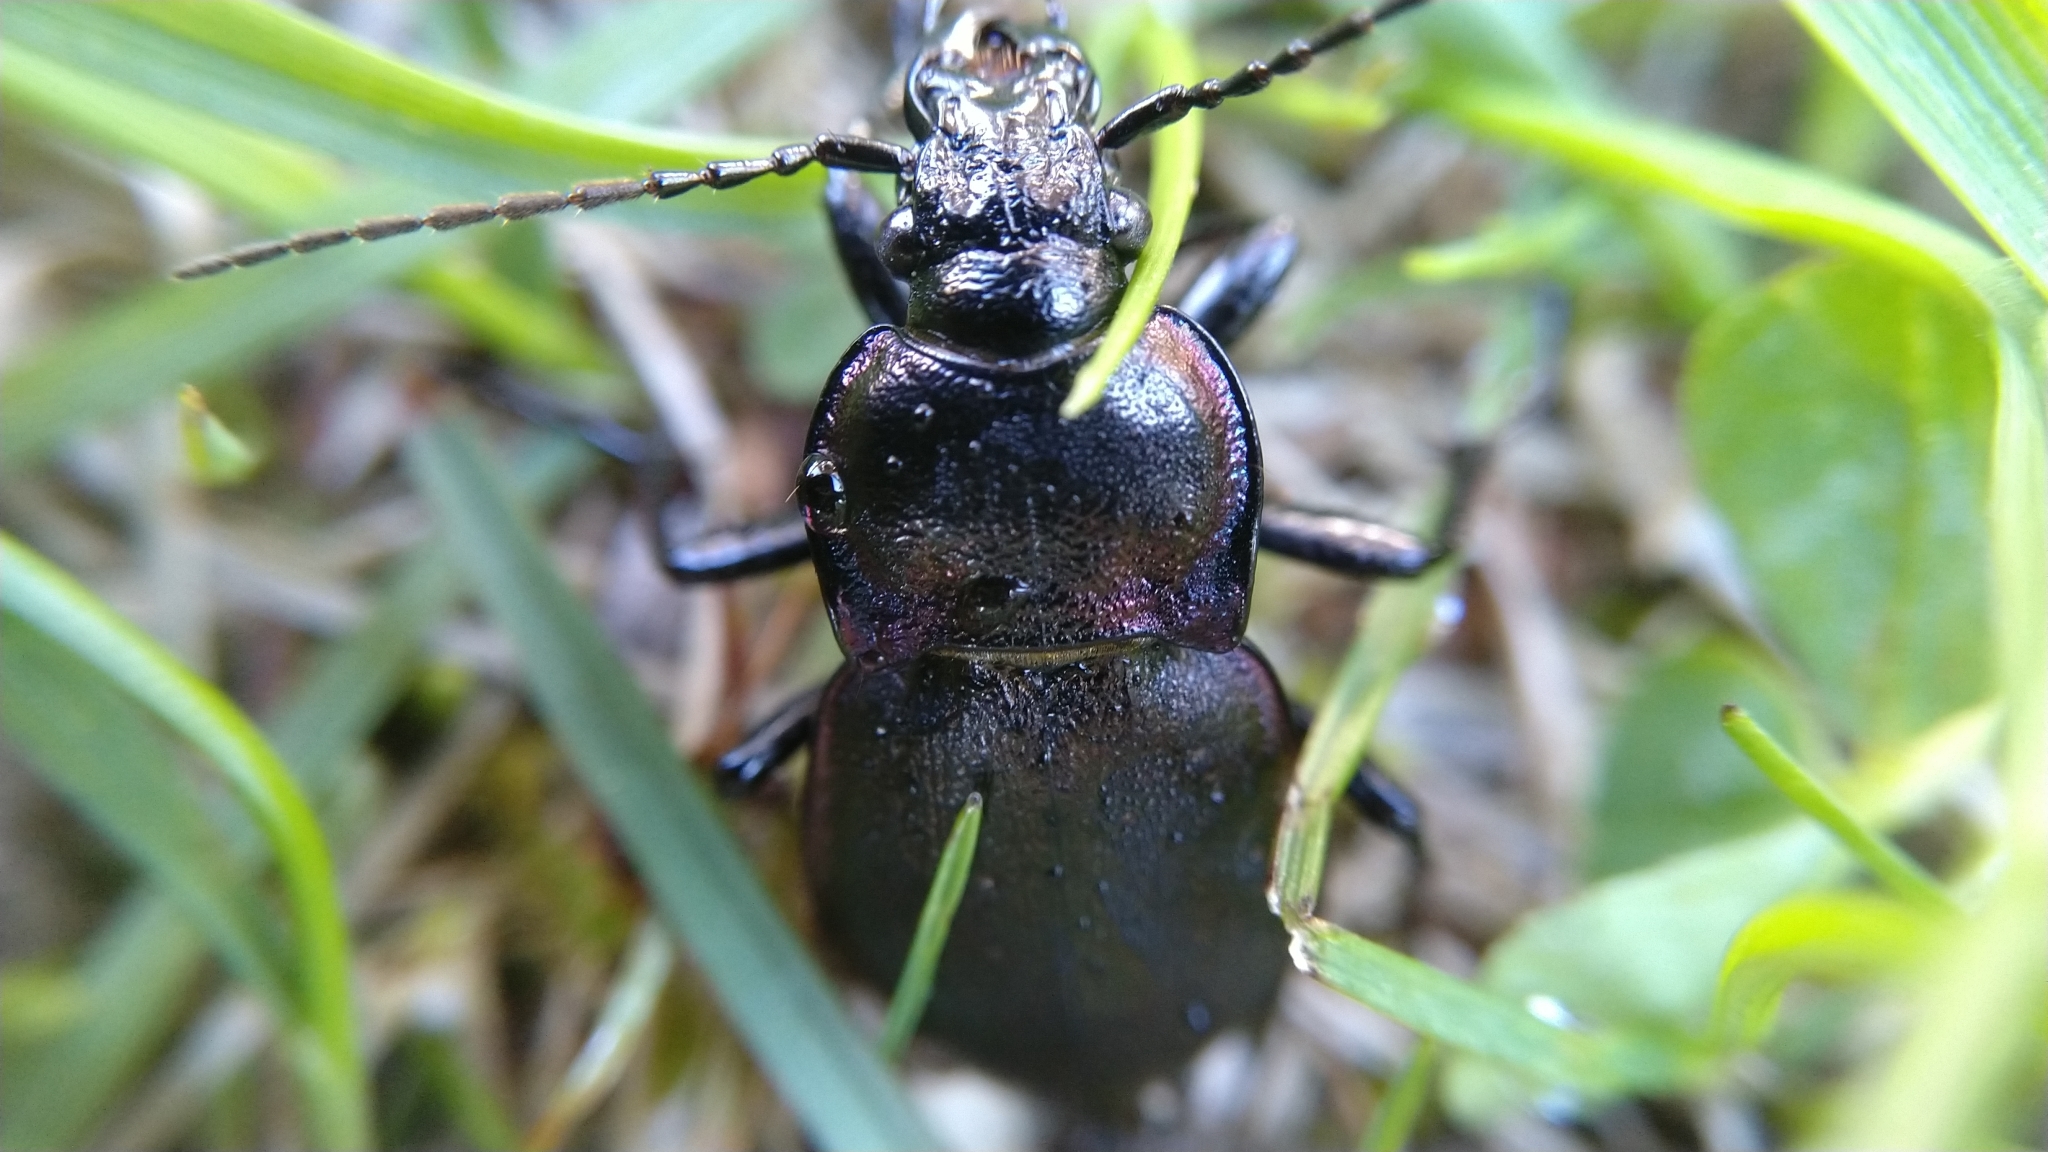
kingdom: Animalia
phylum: Arthropoda
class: Insecta
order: Coleoptera
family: Carabidae
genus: Carabus
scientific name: Carabus nemoralis
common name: European ground beetle
